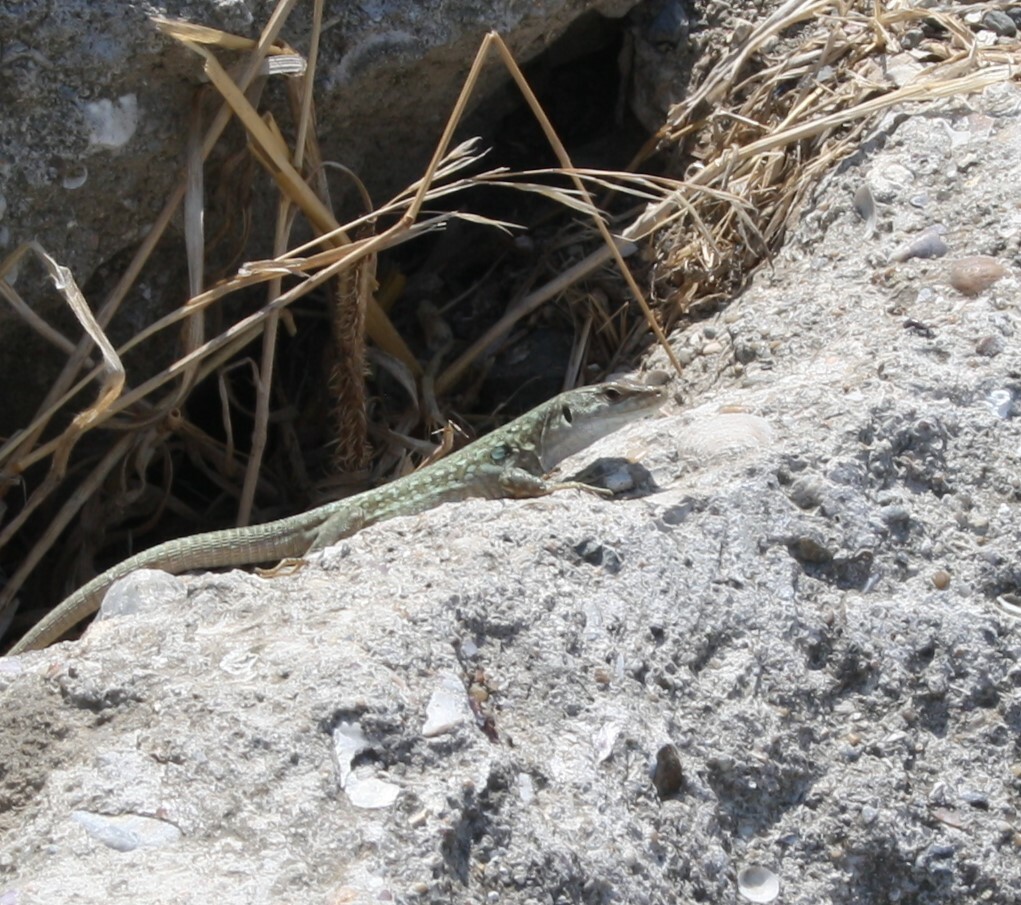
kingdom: Animalia
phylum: Chordata
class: Squamata
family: Lacertidae
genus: Podarcis
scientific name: Podarcis siculus
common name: Italian wall lizard
